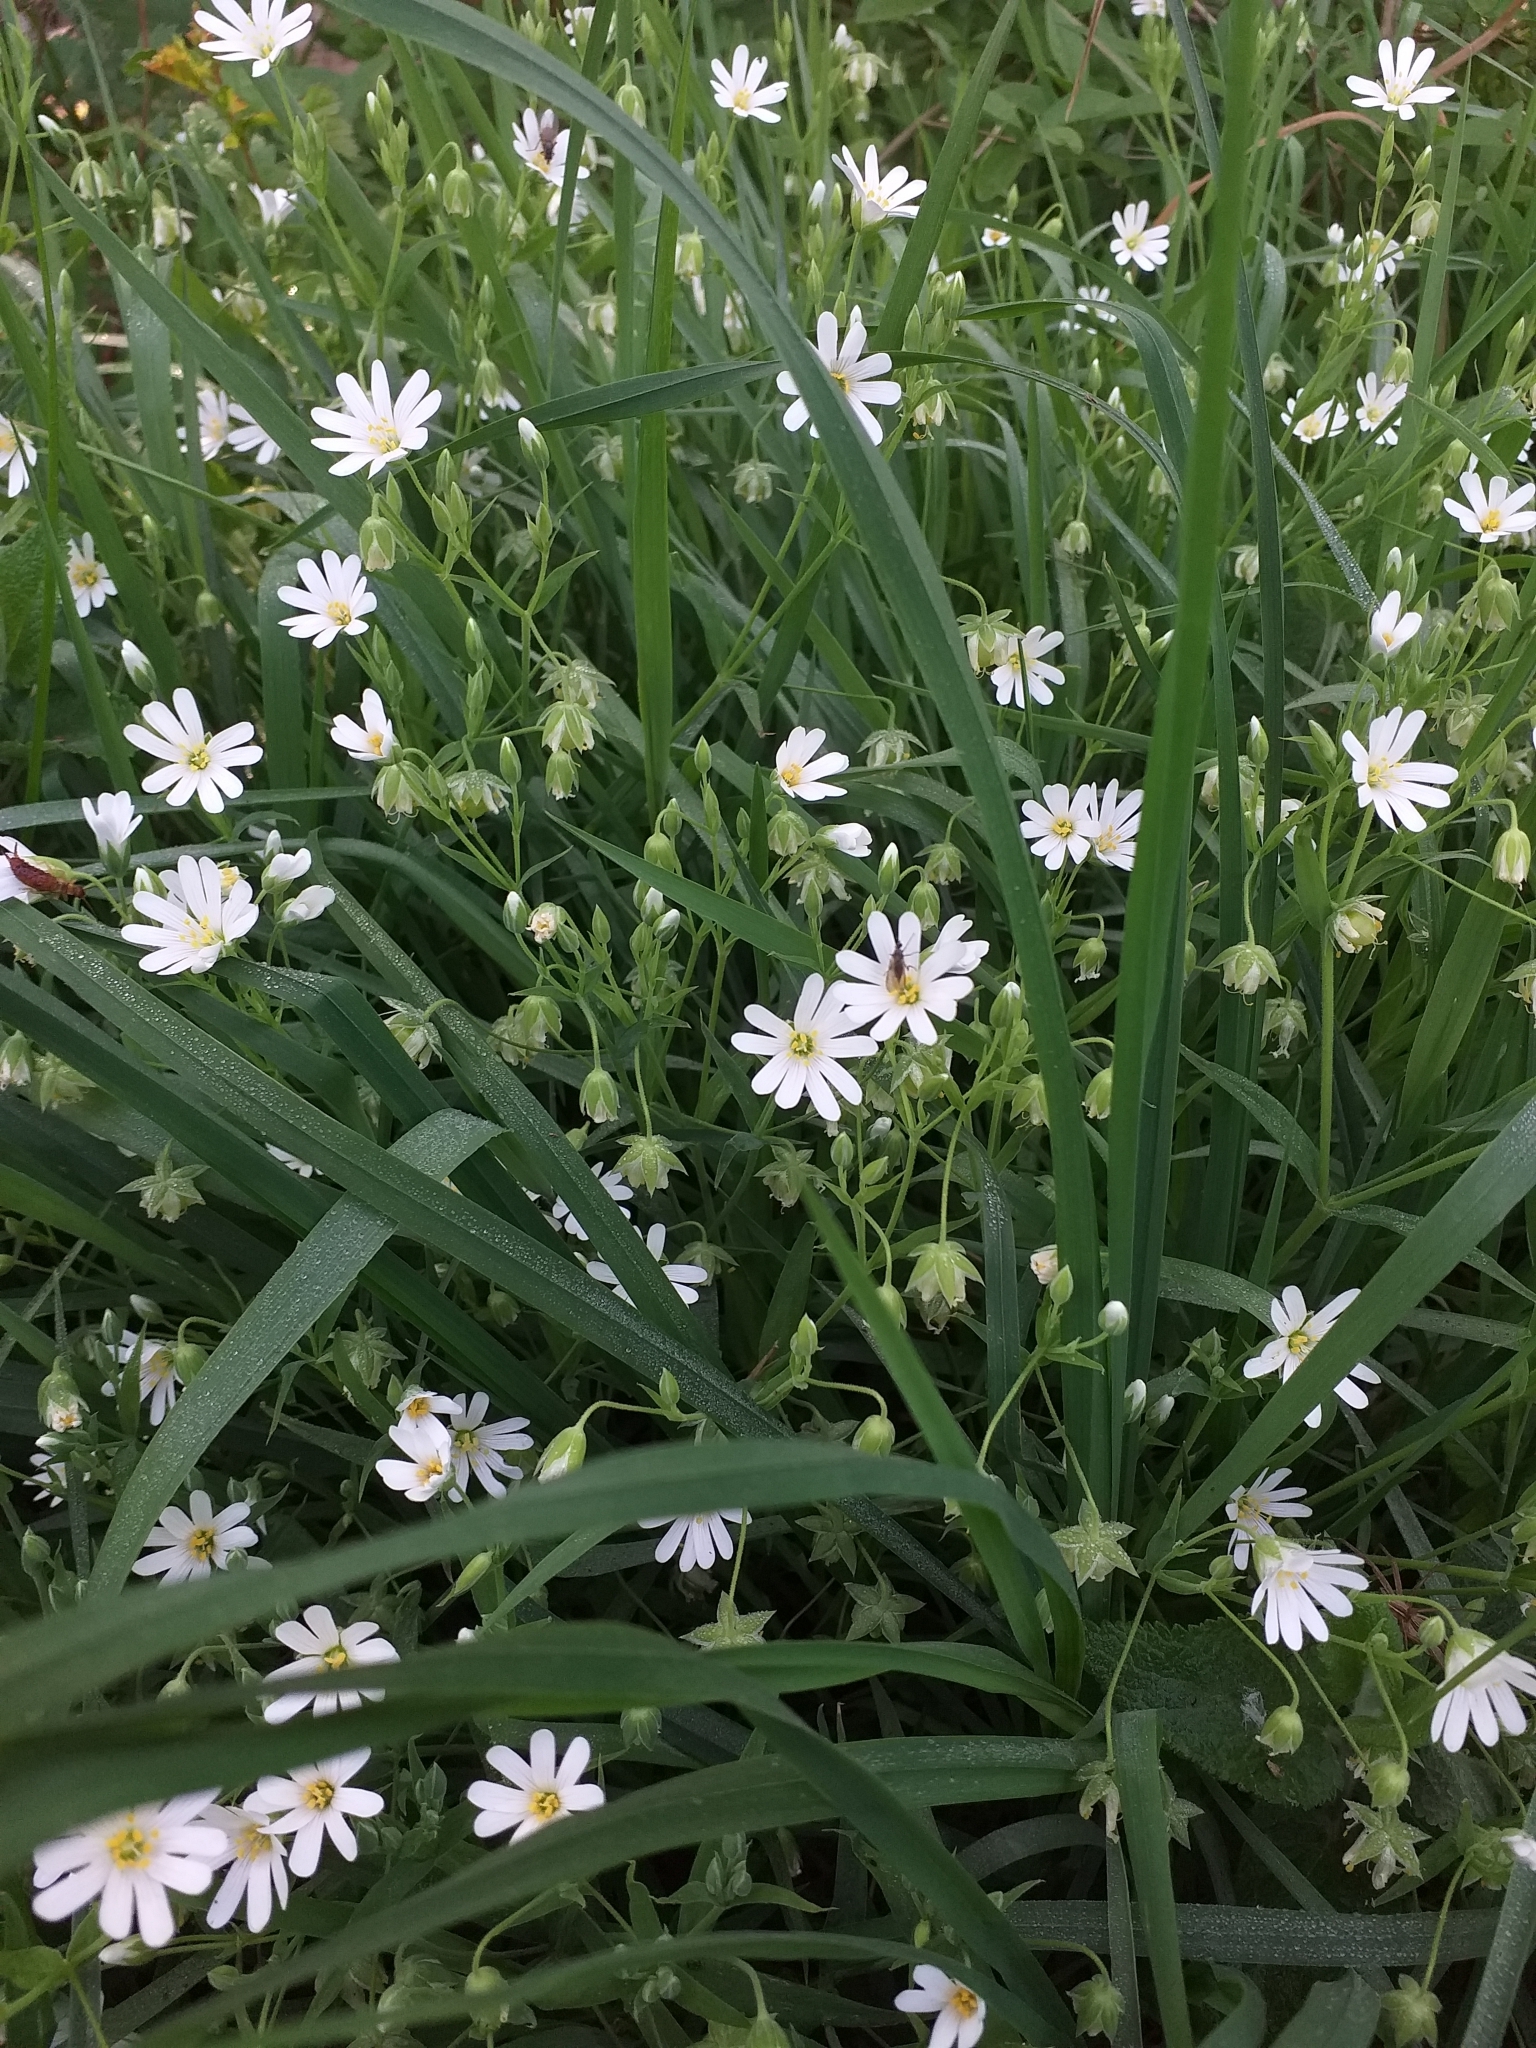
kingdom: Plantae
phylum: Tracheophyta
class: Magnoliopsida
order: Caryophyllales
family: Caryophyllaceae
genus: Rabelera
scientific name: Rabelera holostea
